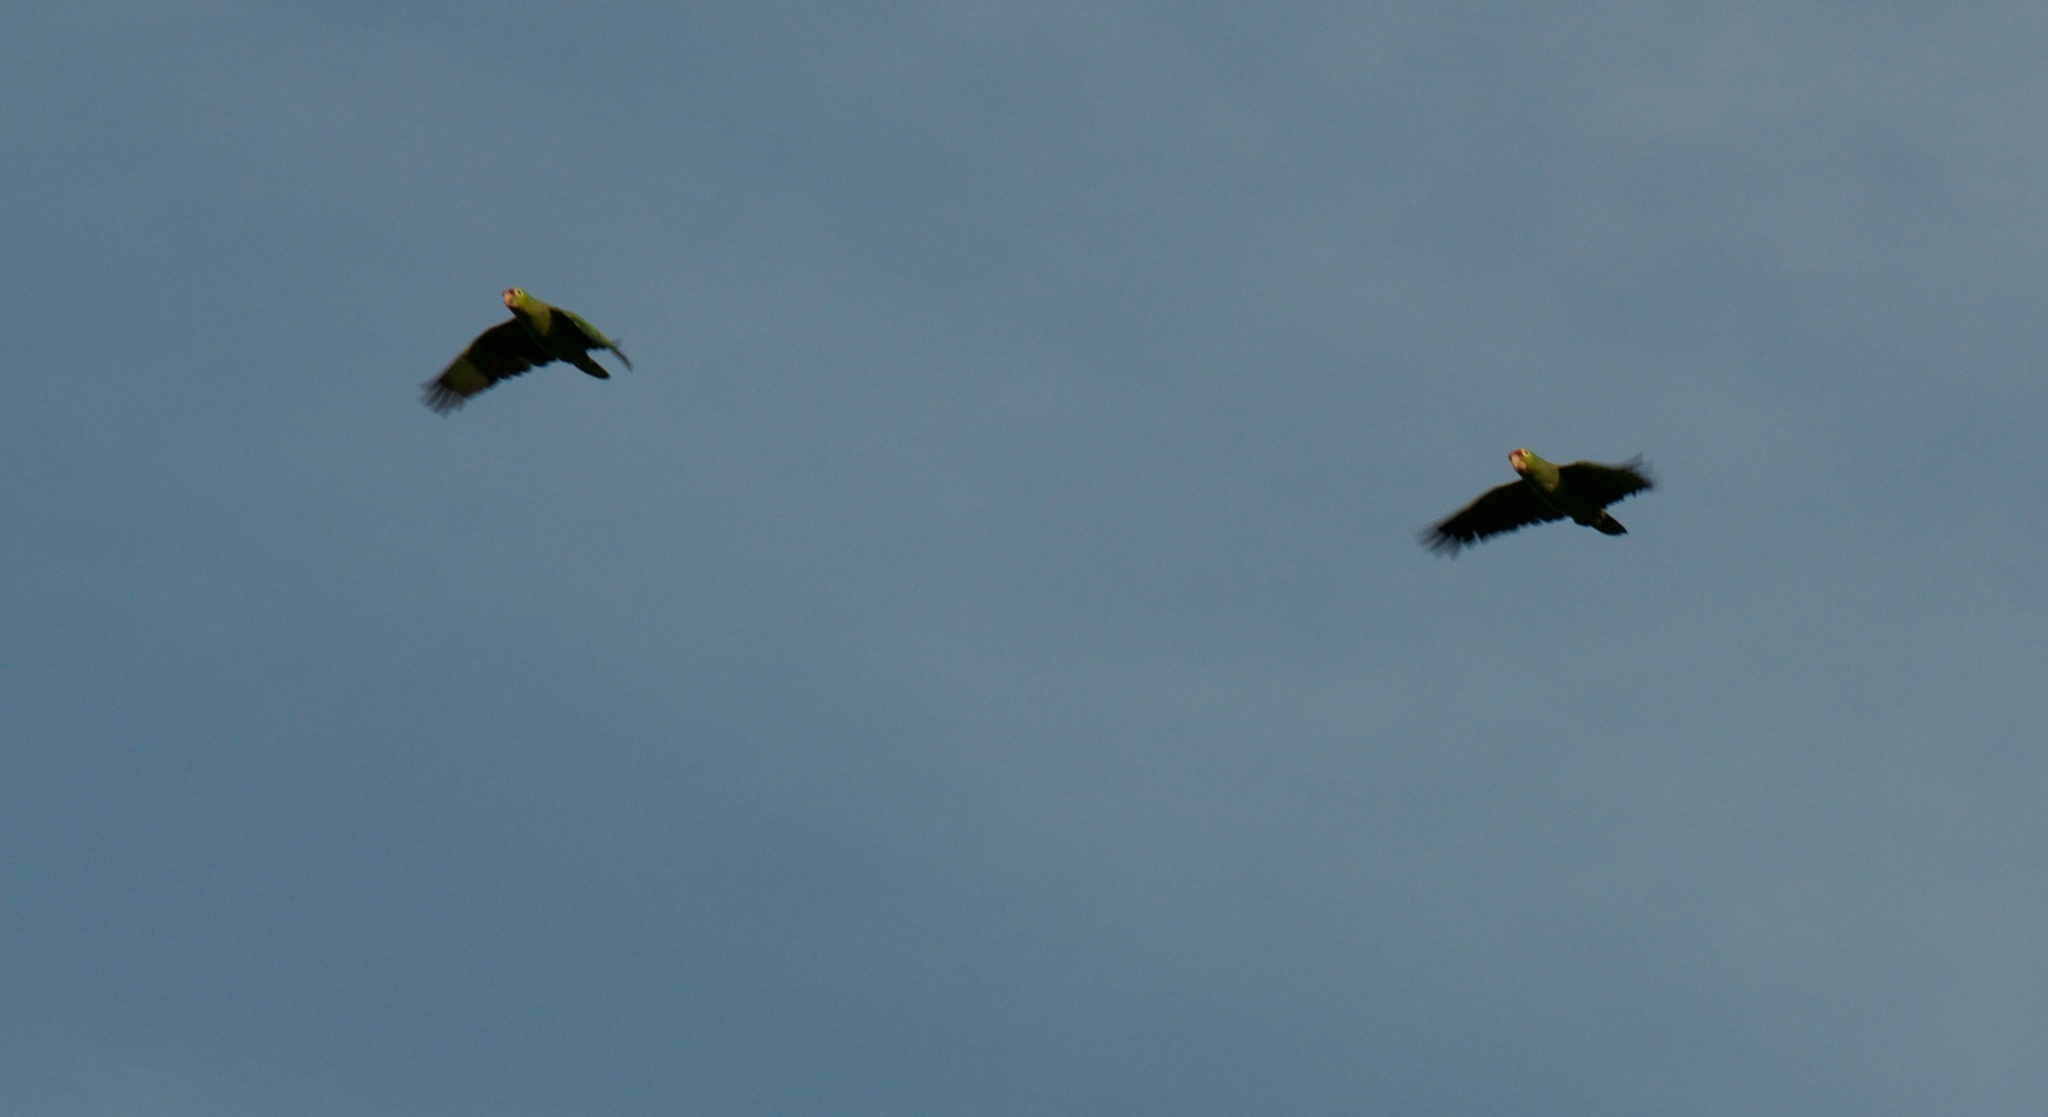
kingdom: Animalia
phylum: Chordata
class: Aves
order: Psittaciformes
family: Psittacidae
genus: Amazona
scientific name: Amazona autumnalis
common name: Red-lored amazon
